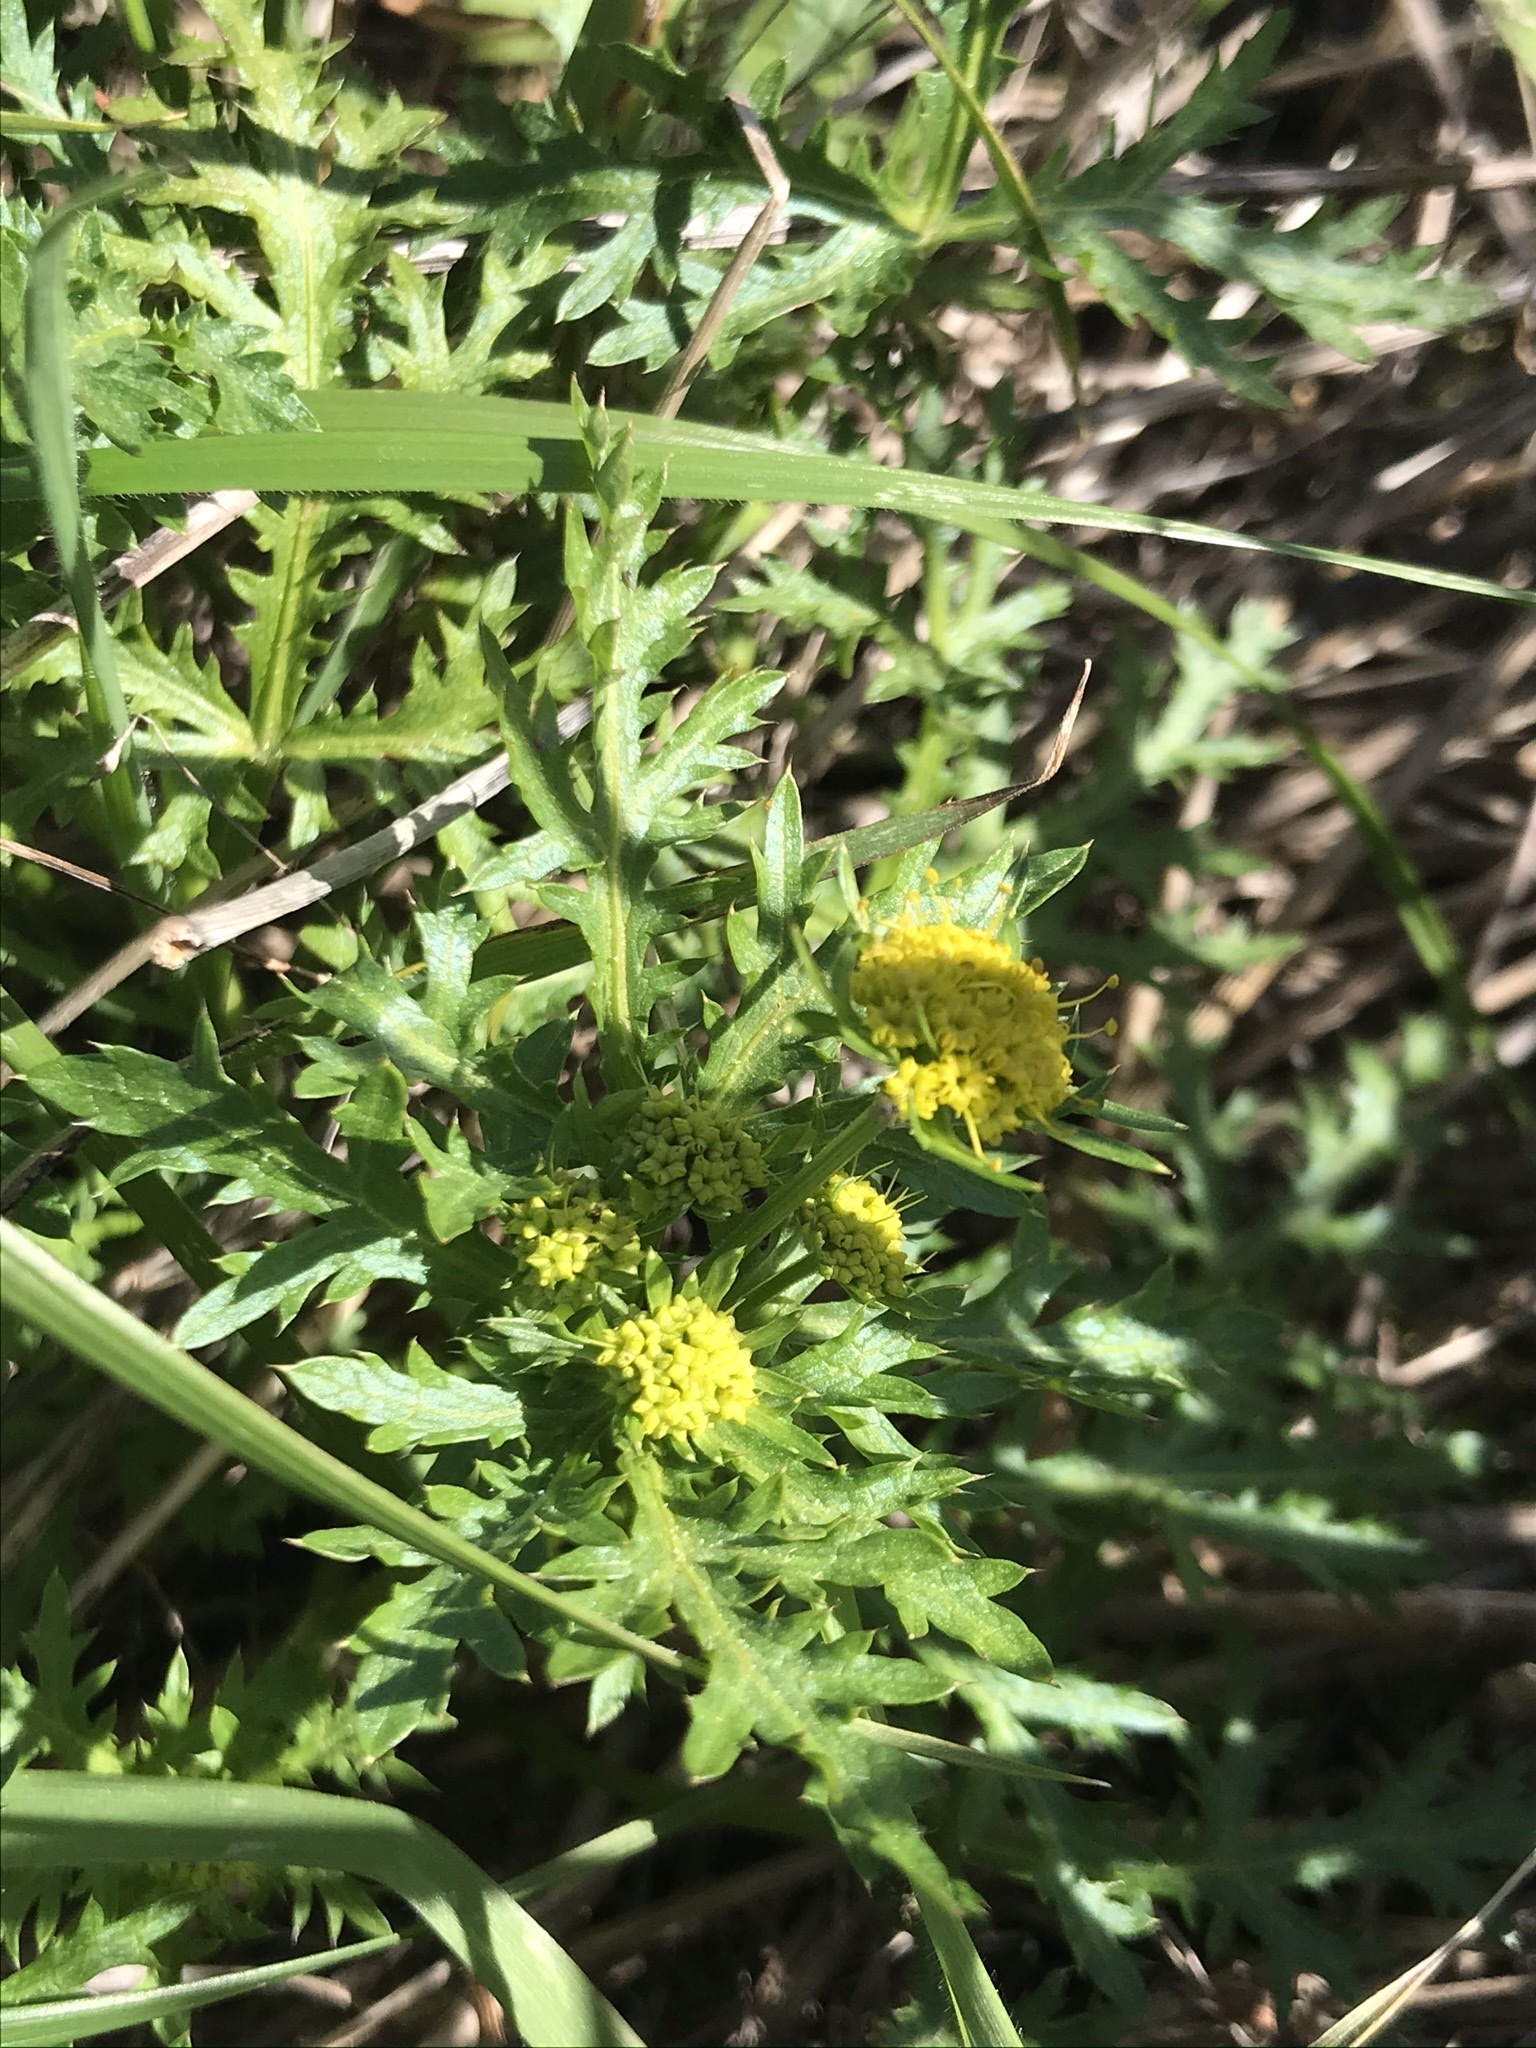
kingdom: Plantae
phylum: Tracheophyta
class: Magnoliopsida
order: Apiales
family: Apiaceae
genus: Sanicula
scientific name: Sanicula arguta
